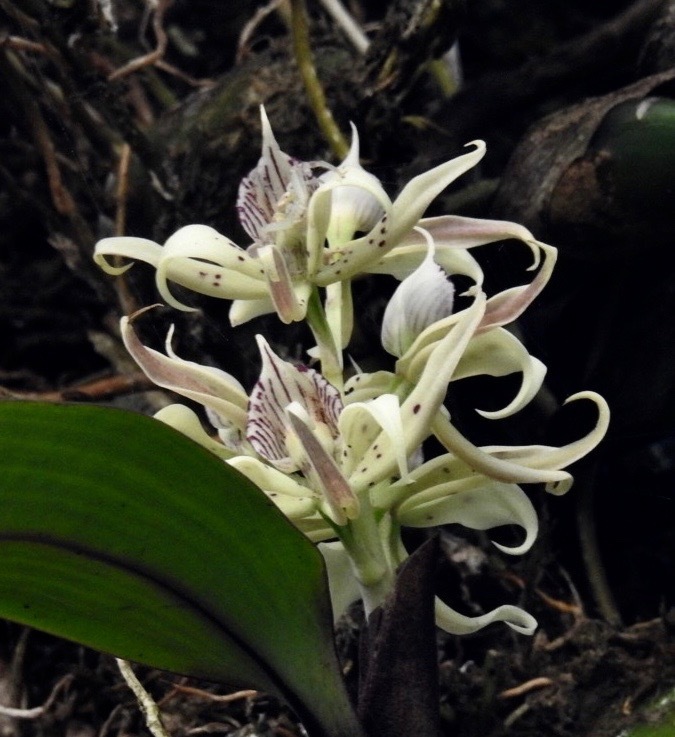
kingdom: Plantae
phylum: Tracheophyta
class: Liliopsida
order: Asparagales
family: Orchidaceae
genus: Prosthechea
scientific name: Prosthechea chimborazoensis
